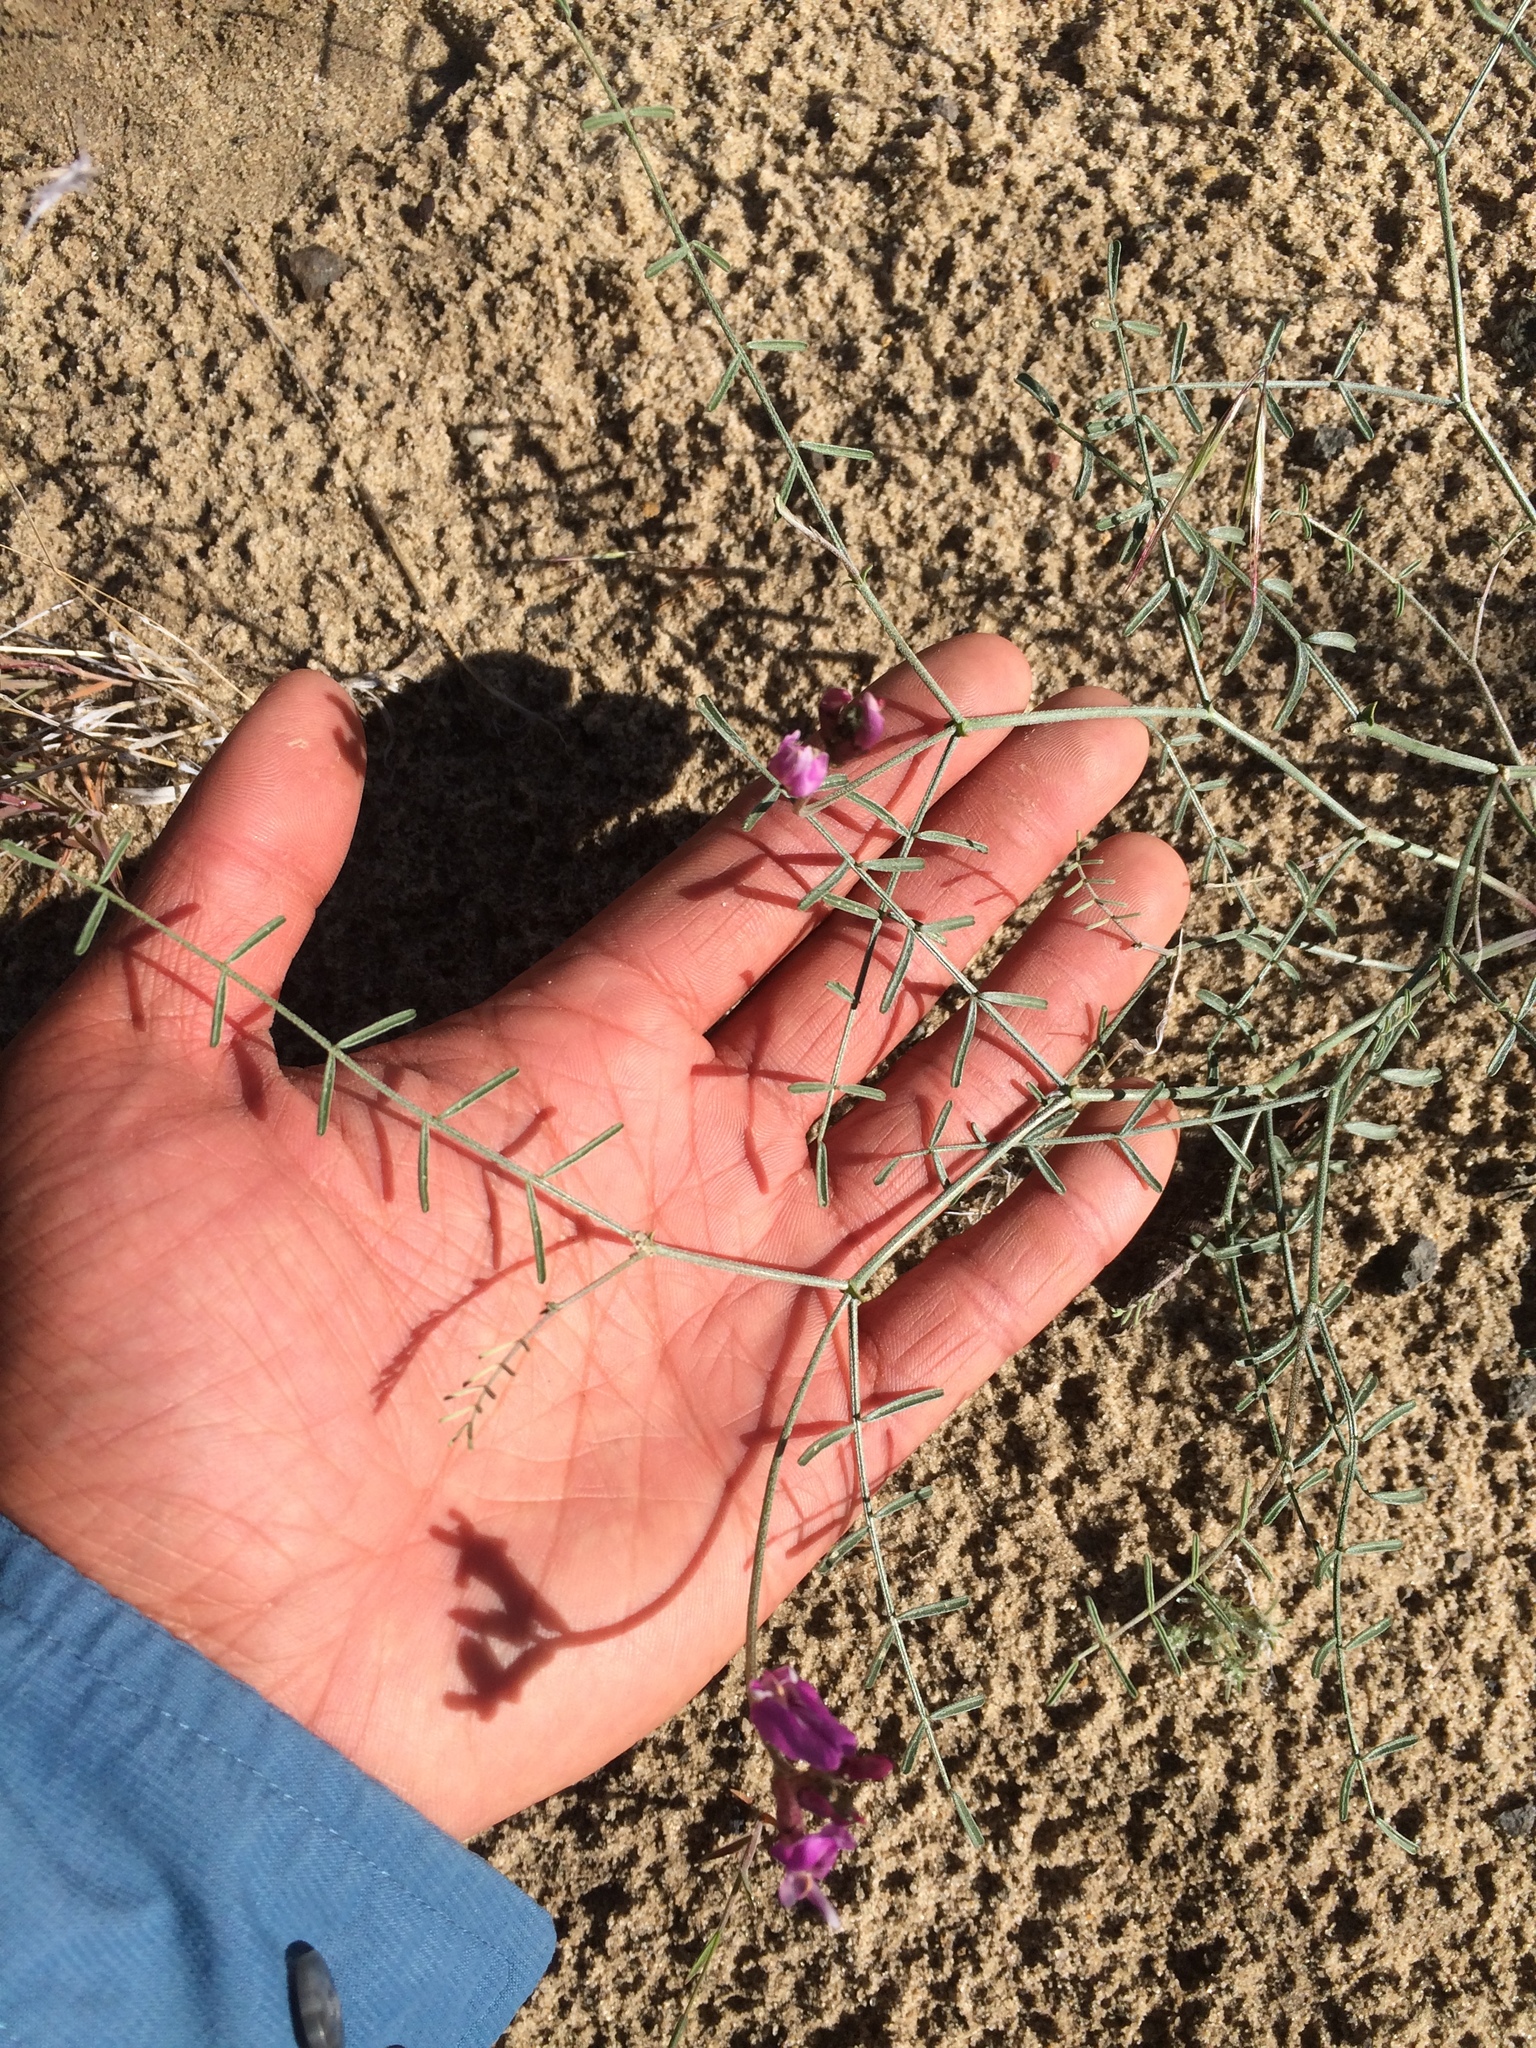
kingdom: Plantae
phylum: Tracheophyta
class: Magnoliopsida
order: Fabales
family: Fabaceae
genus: Astragalus
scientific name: Astragalus casei
